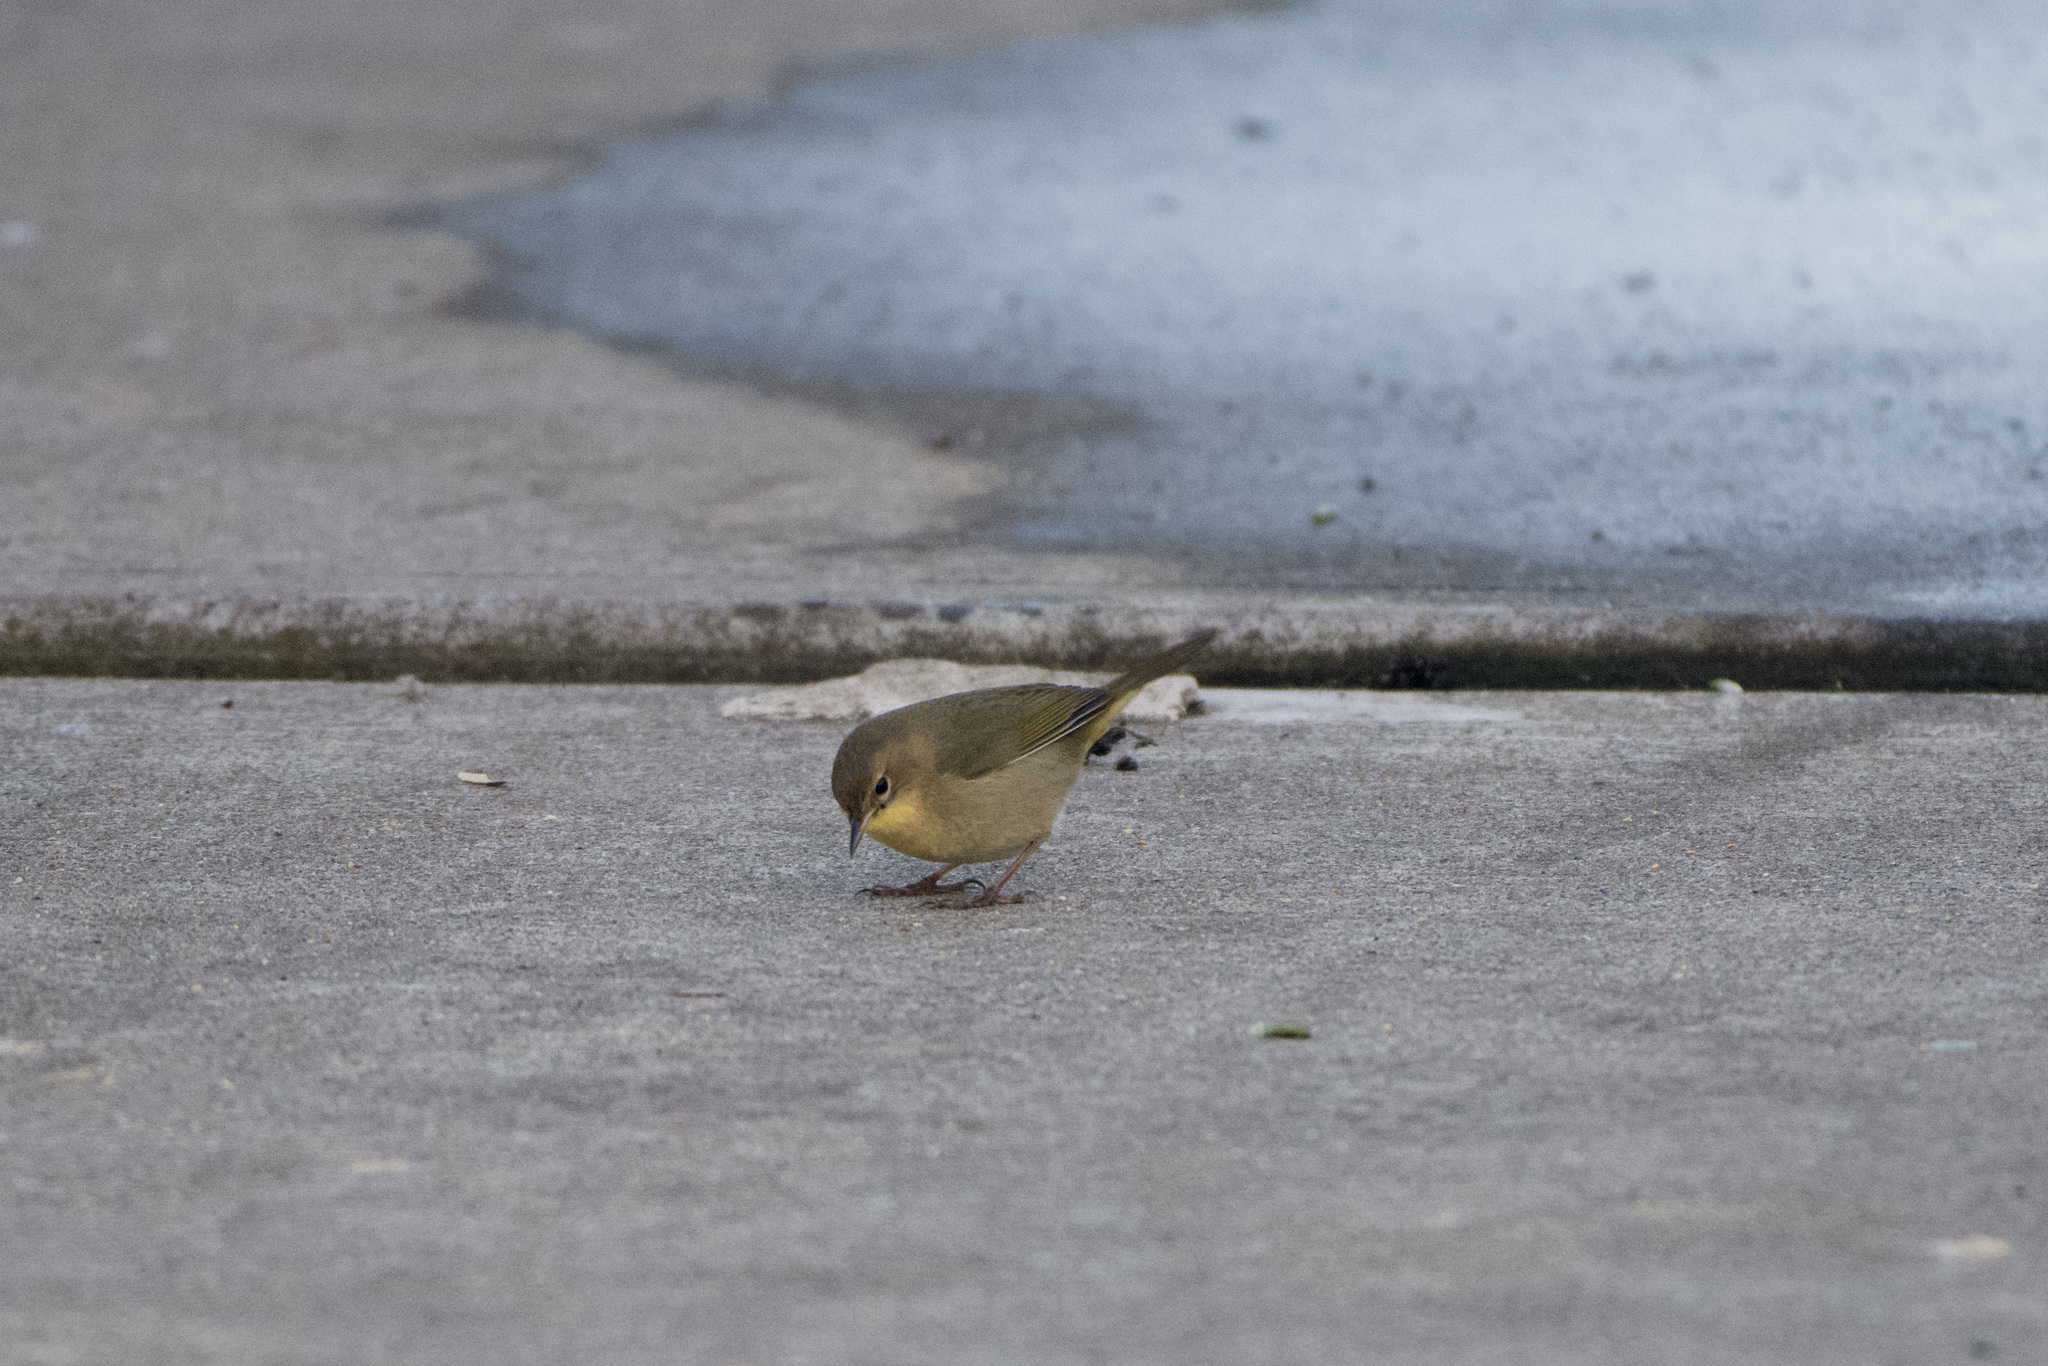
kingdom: Animalia
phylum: Chordata
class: Aves
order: Passeriformes
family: Parulidae
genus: Geothlypis
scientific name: Geothlypis trichas
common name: Common yellowthroat
